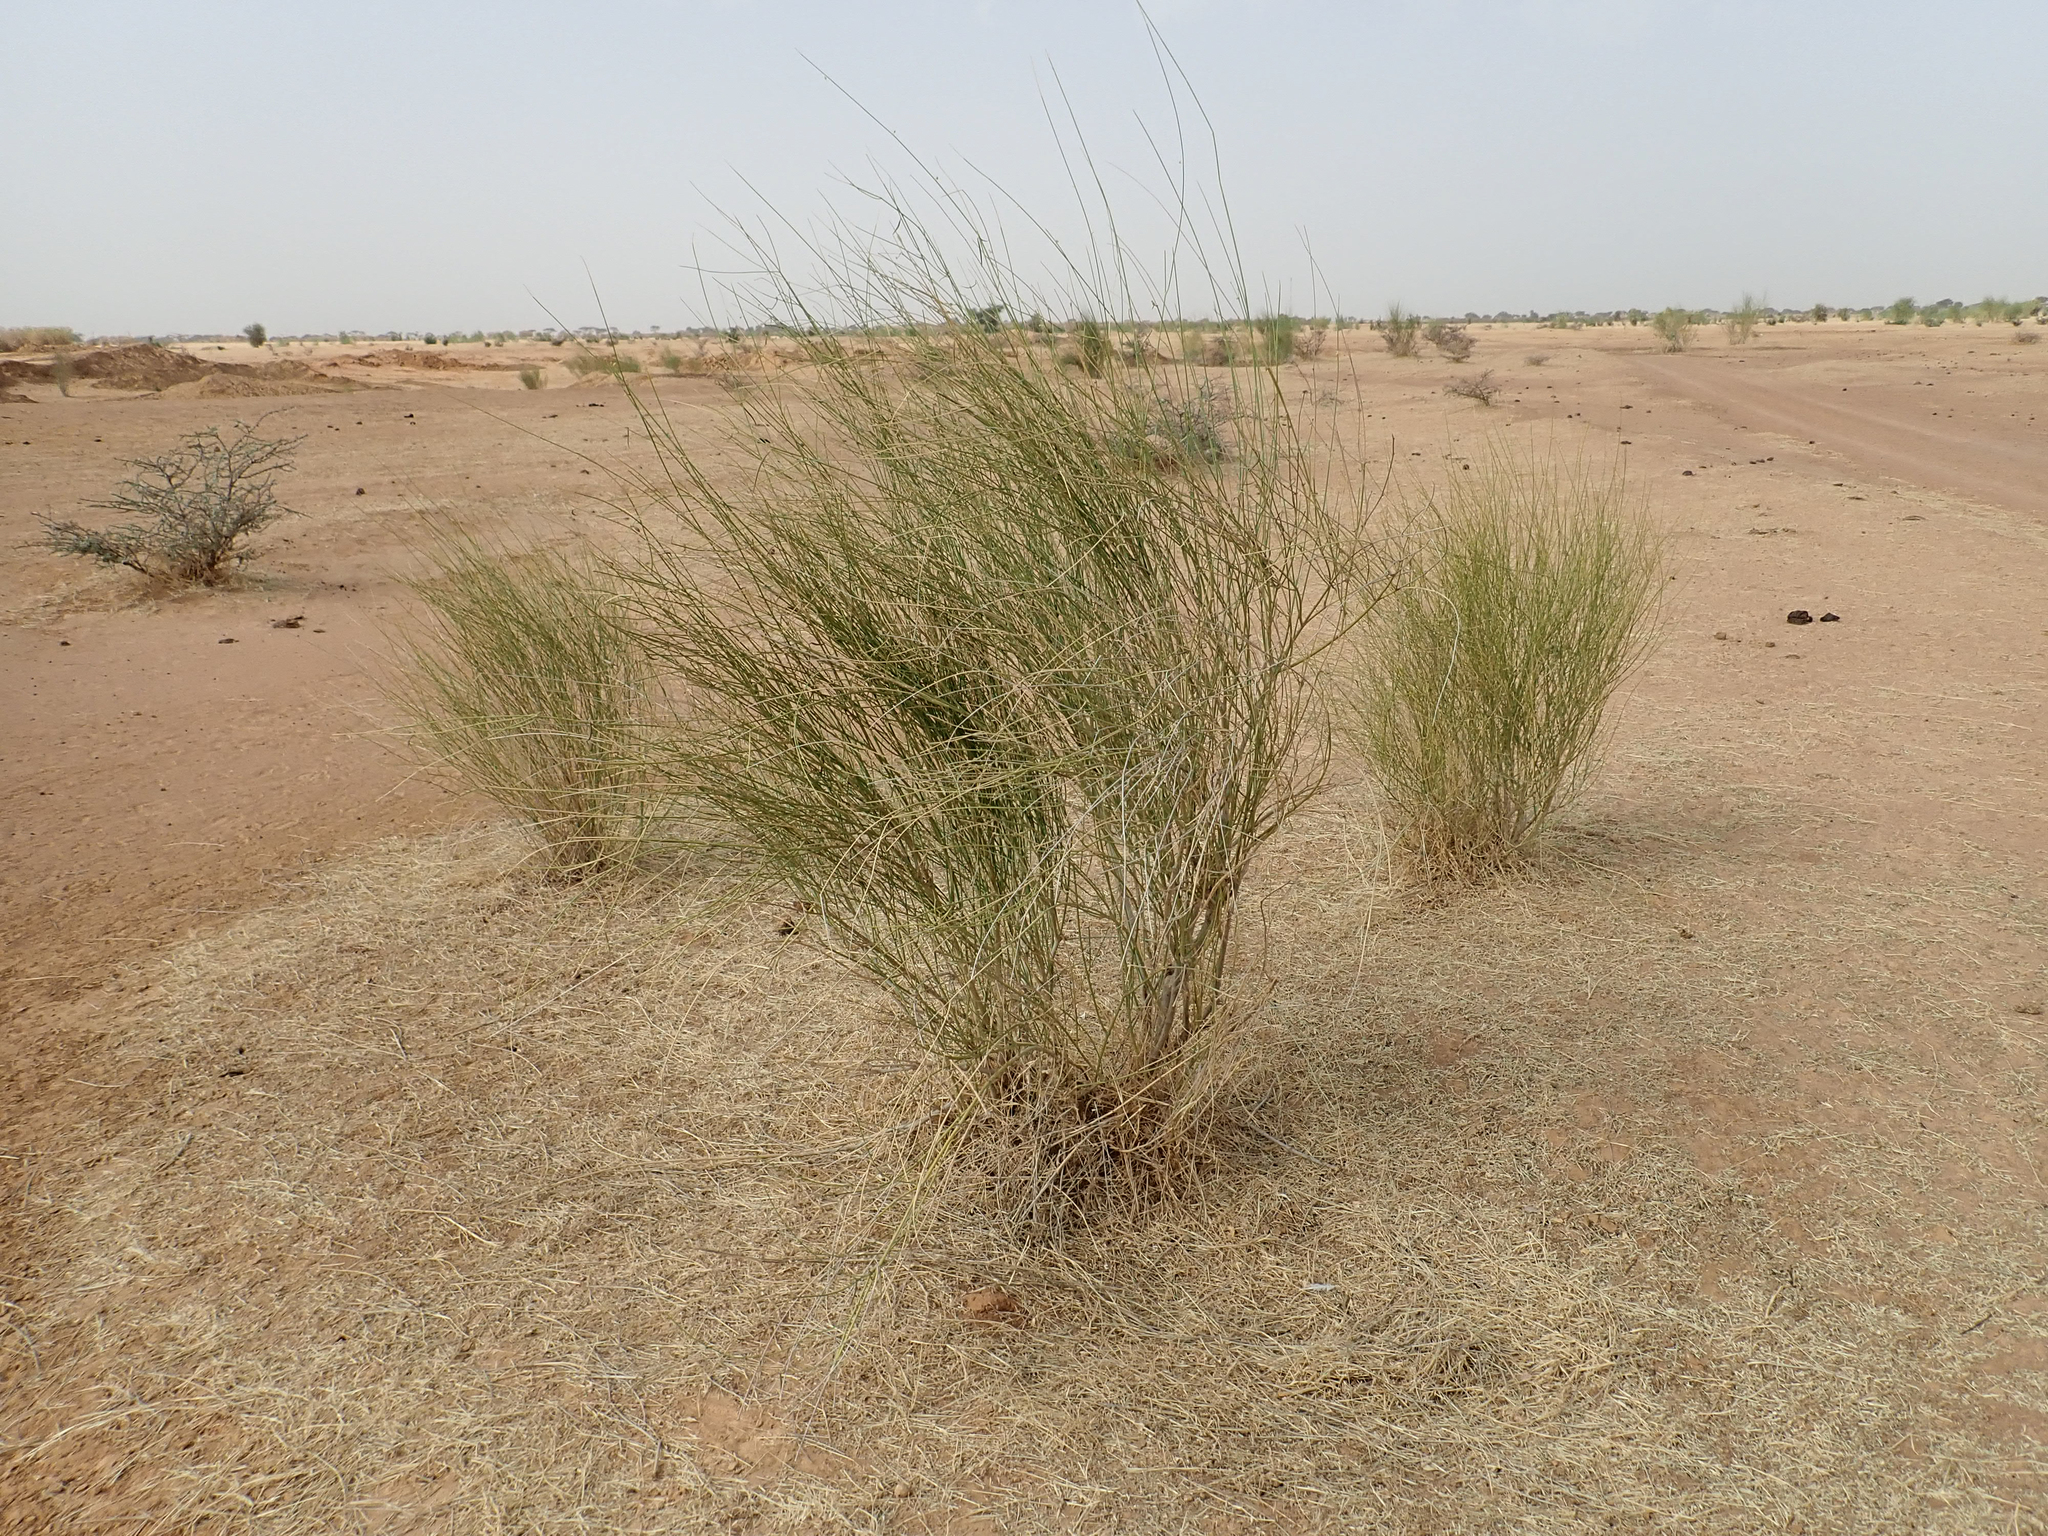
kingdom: Plantae
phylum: Tracheophyta
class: Magnoliopsida
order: Gentianales
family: Apocynaceae
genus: Leptadenia
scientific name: Leptadenia pyrotechnica
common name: Broom brush
